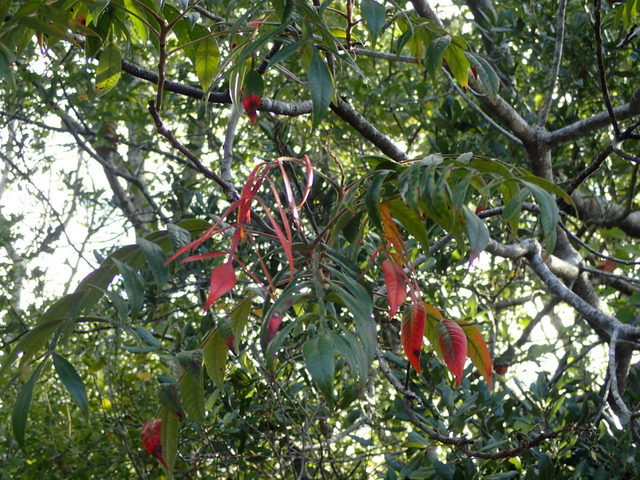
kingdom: Plantae
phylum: Tracheophyta
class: Magnoliopsida
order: Sapindales
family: Anacardiaceae
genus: Rhus
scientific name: Rhus copallina
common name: Shining sumac
